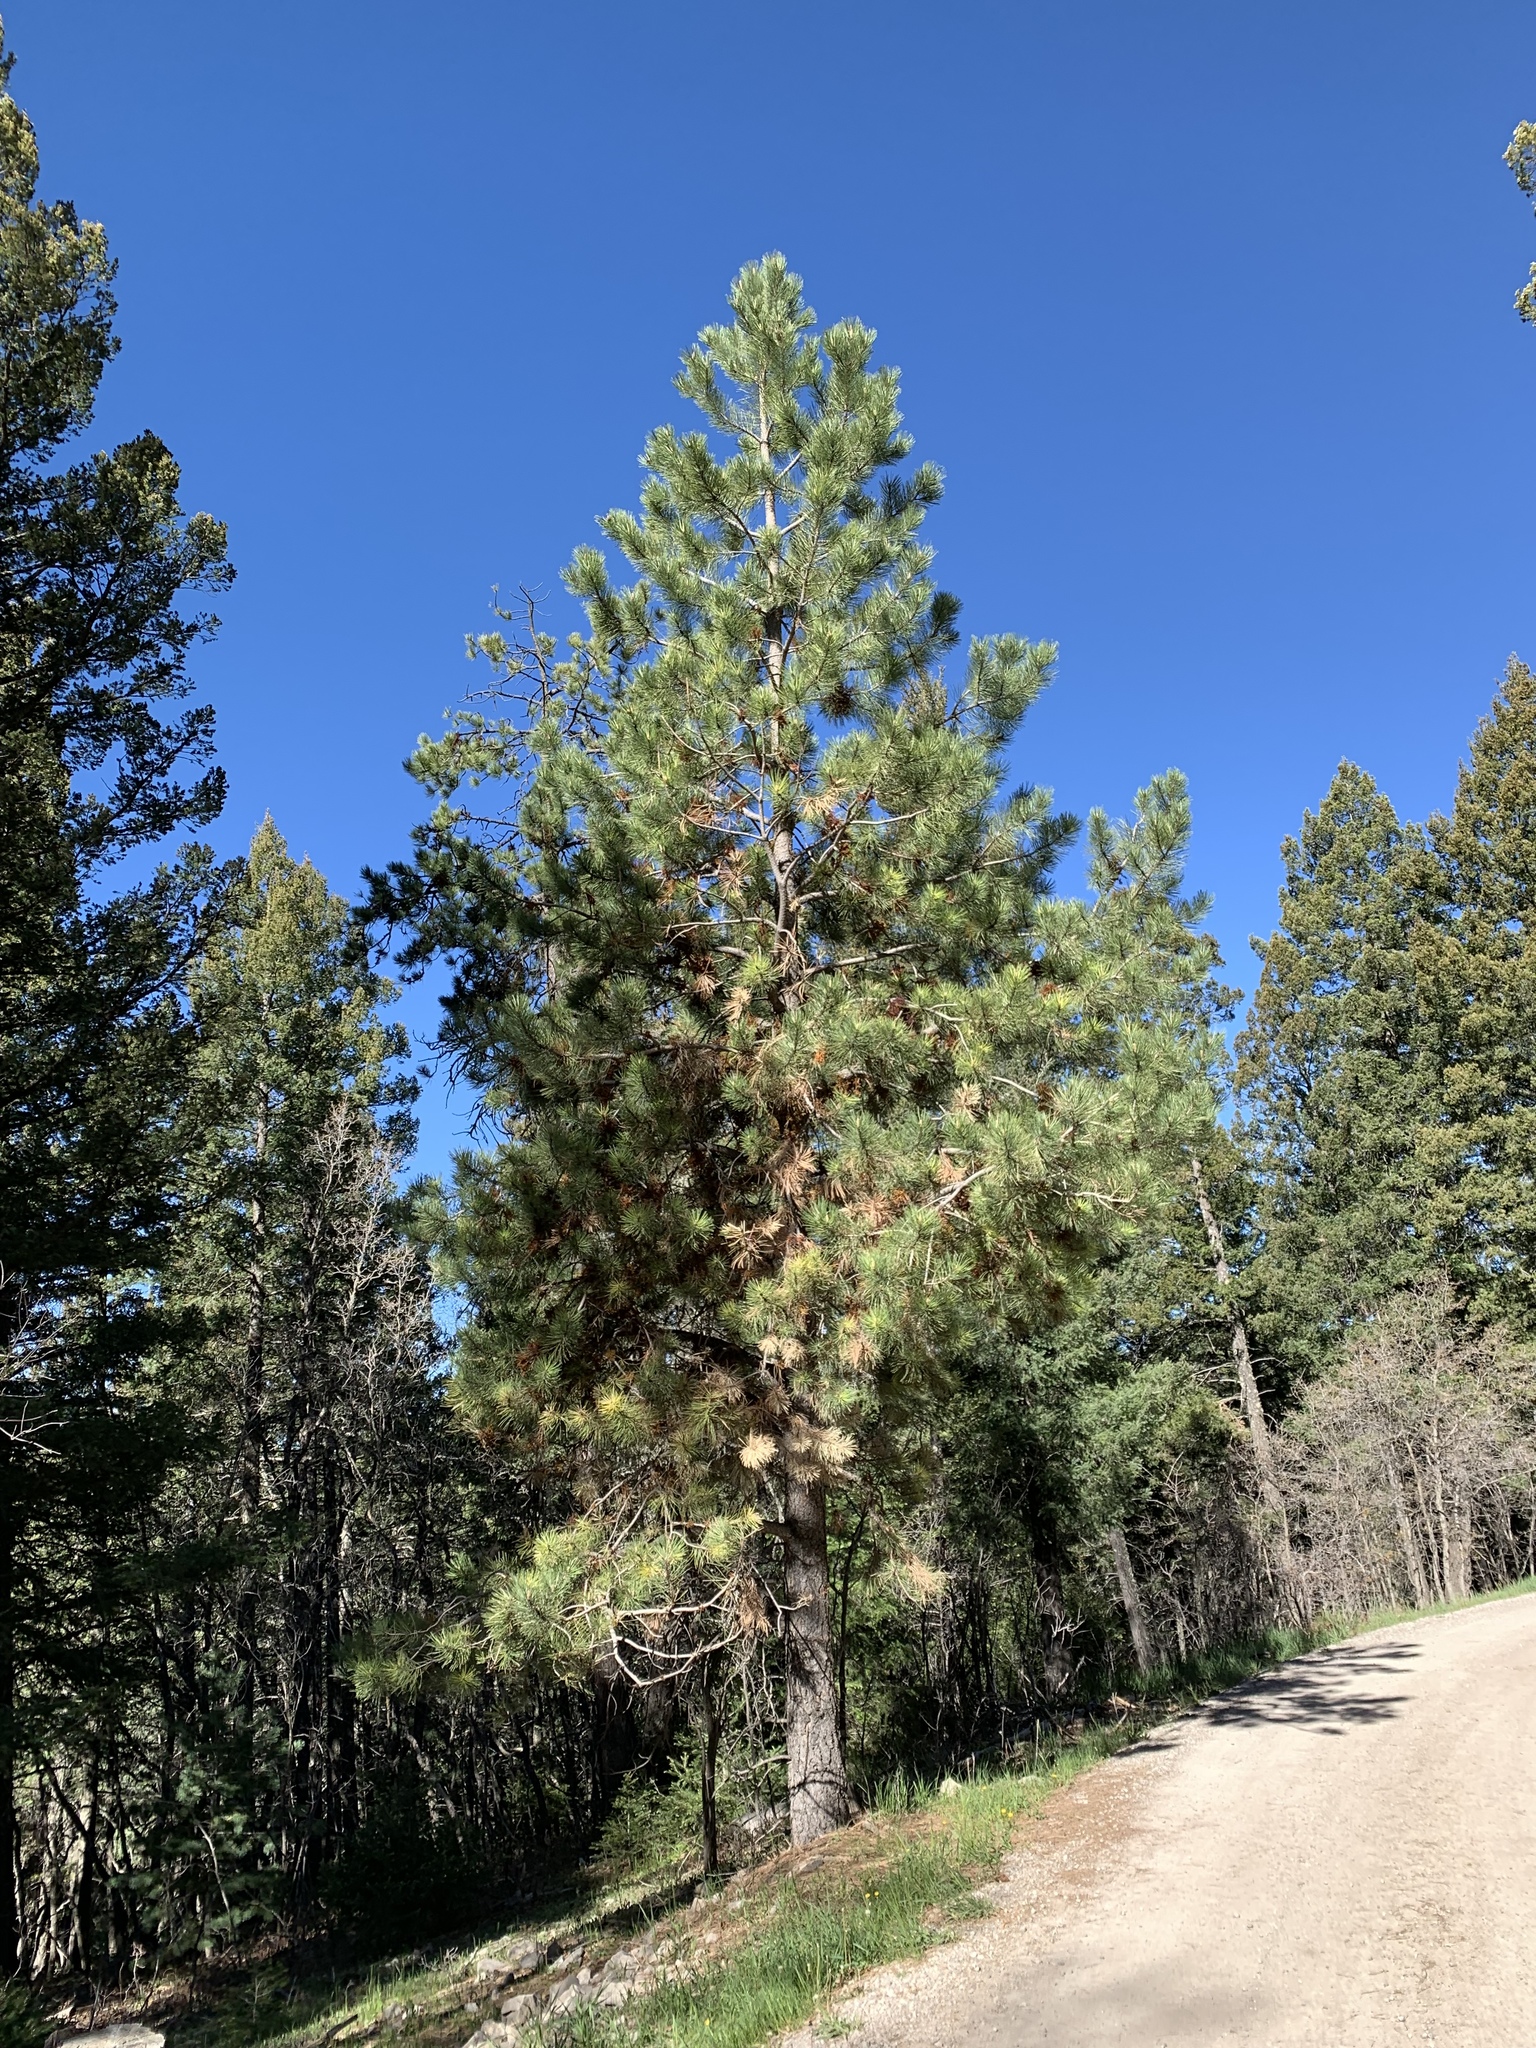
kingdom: Plantae
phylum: Tracheophyta
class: Pinopsida
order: Pinales
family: Pinaceae
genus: Pinus
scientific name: Pinus ponderosa
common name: Western yellow-pine
